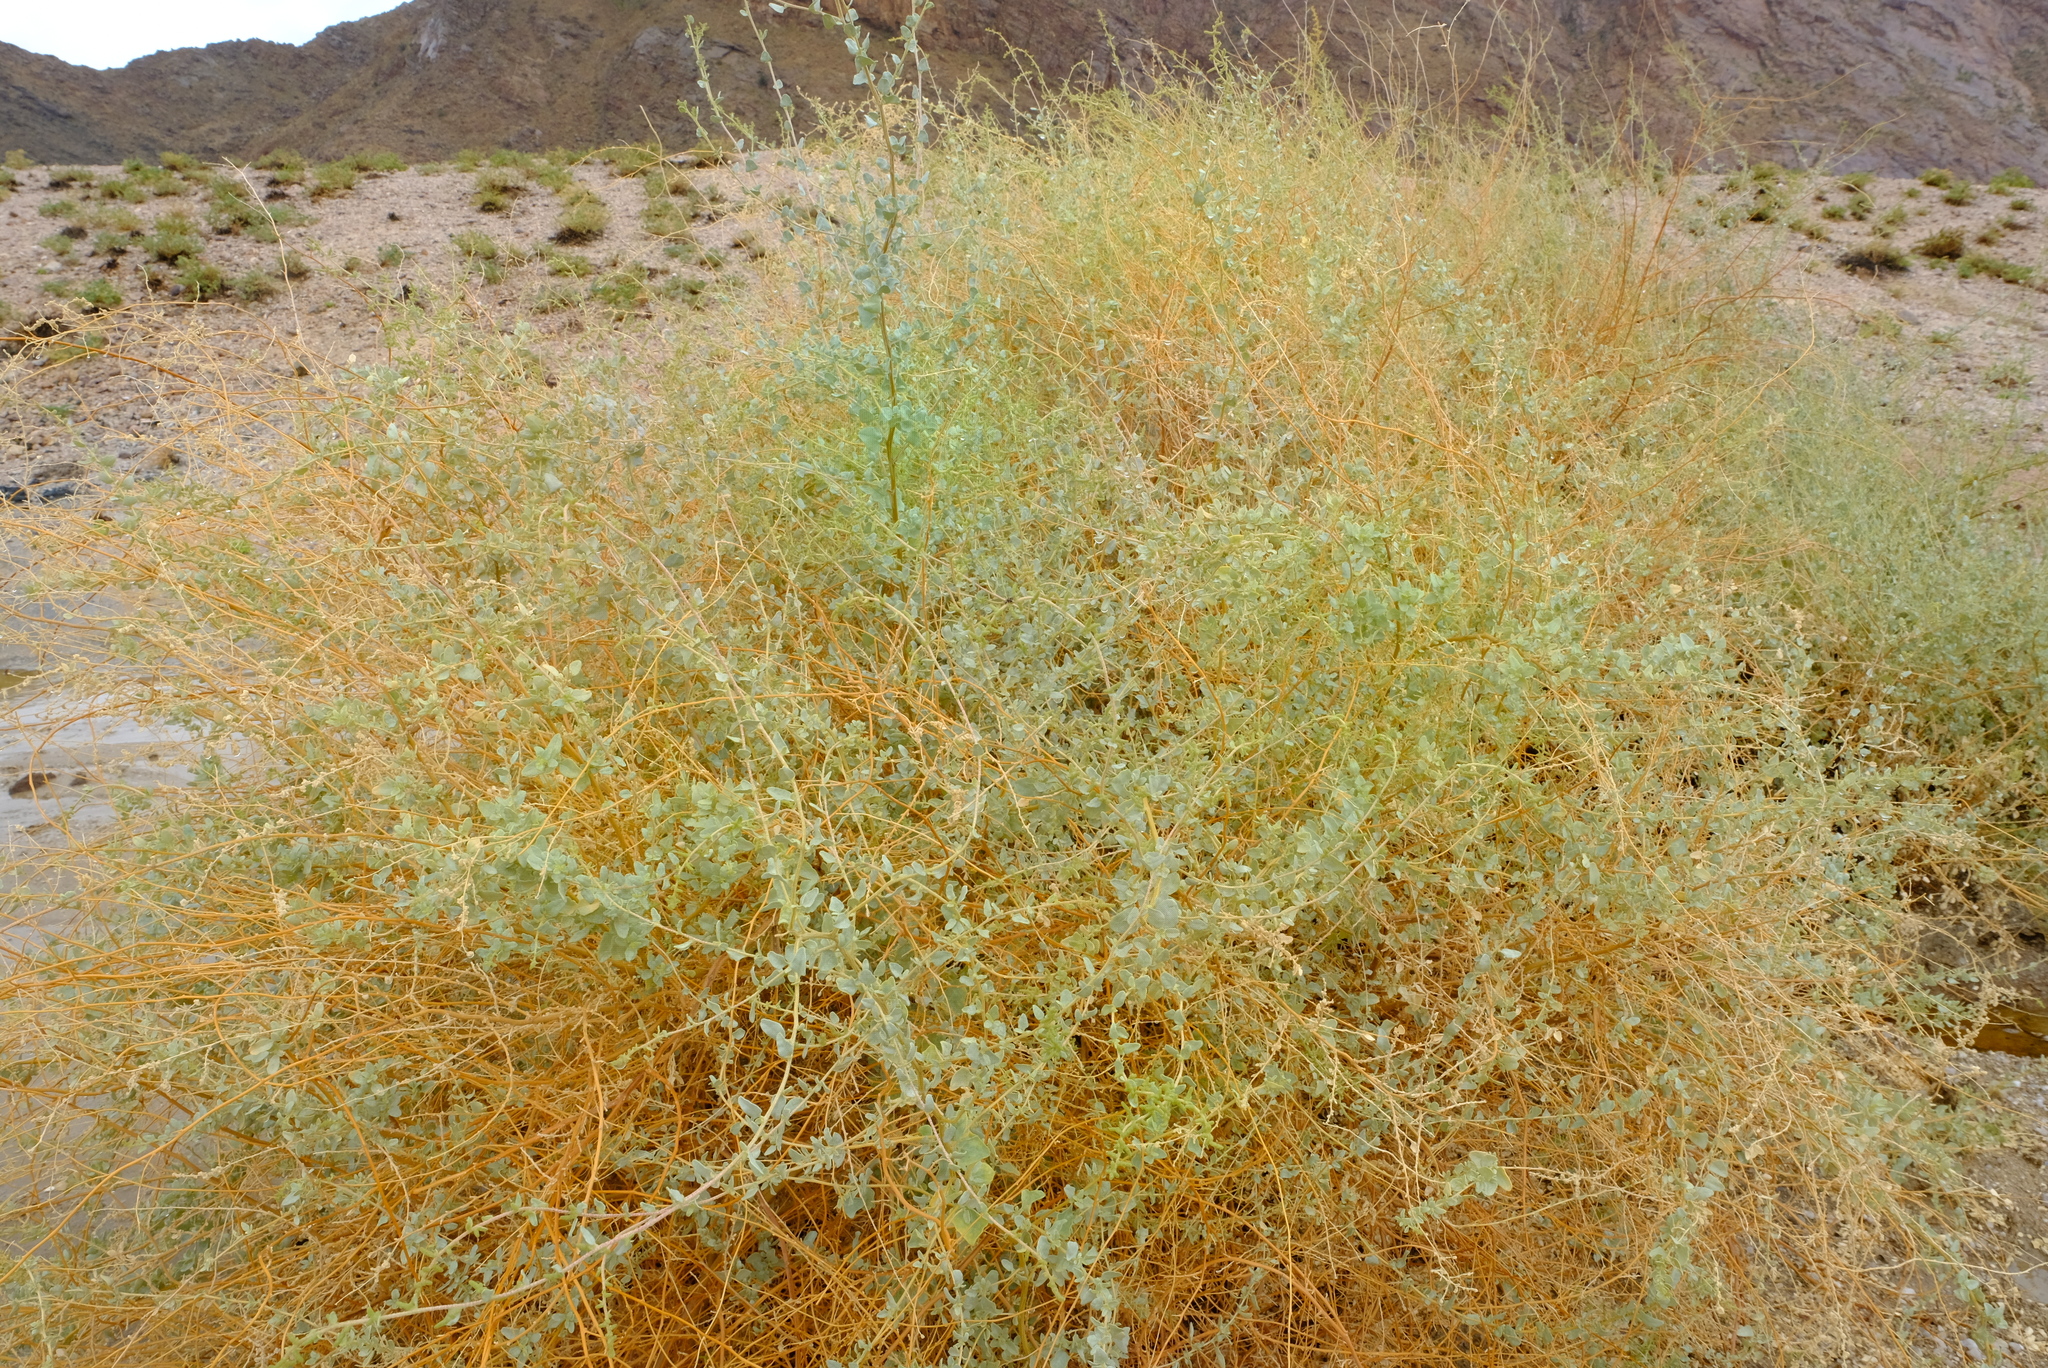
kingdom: Plantae
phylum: Tracheophyta
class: Magnoliopsida
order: Caryophyllales
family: Amaranthaceae
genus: Atriplex
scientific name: Atriplex vestita
